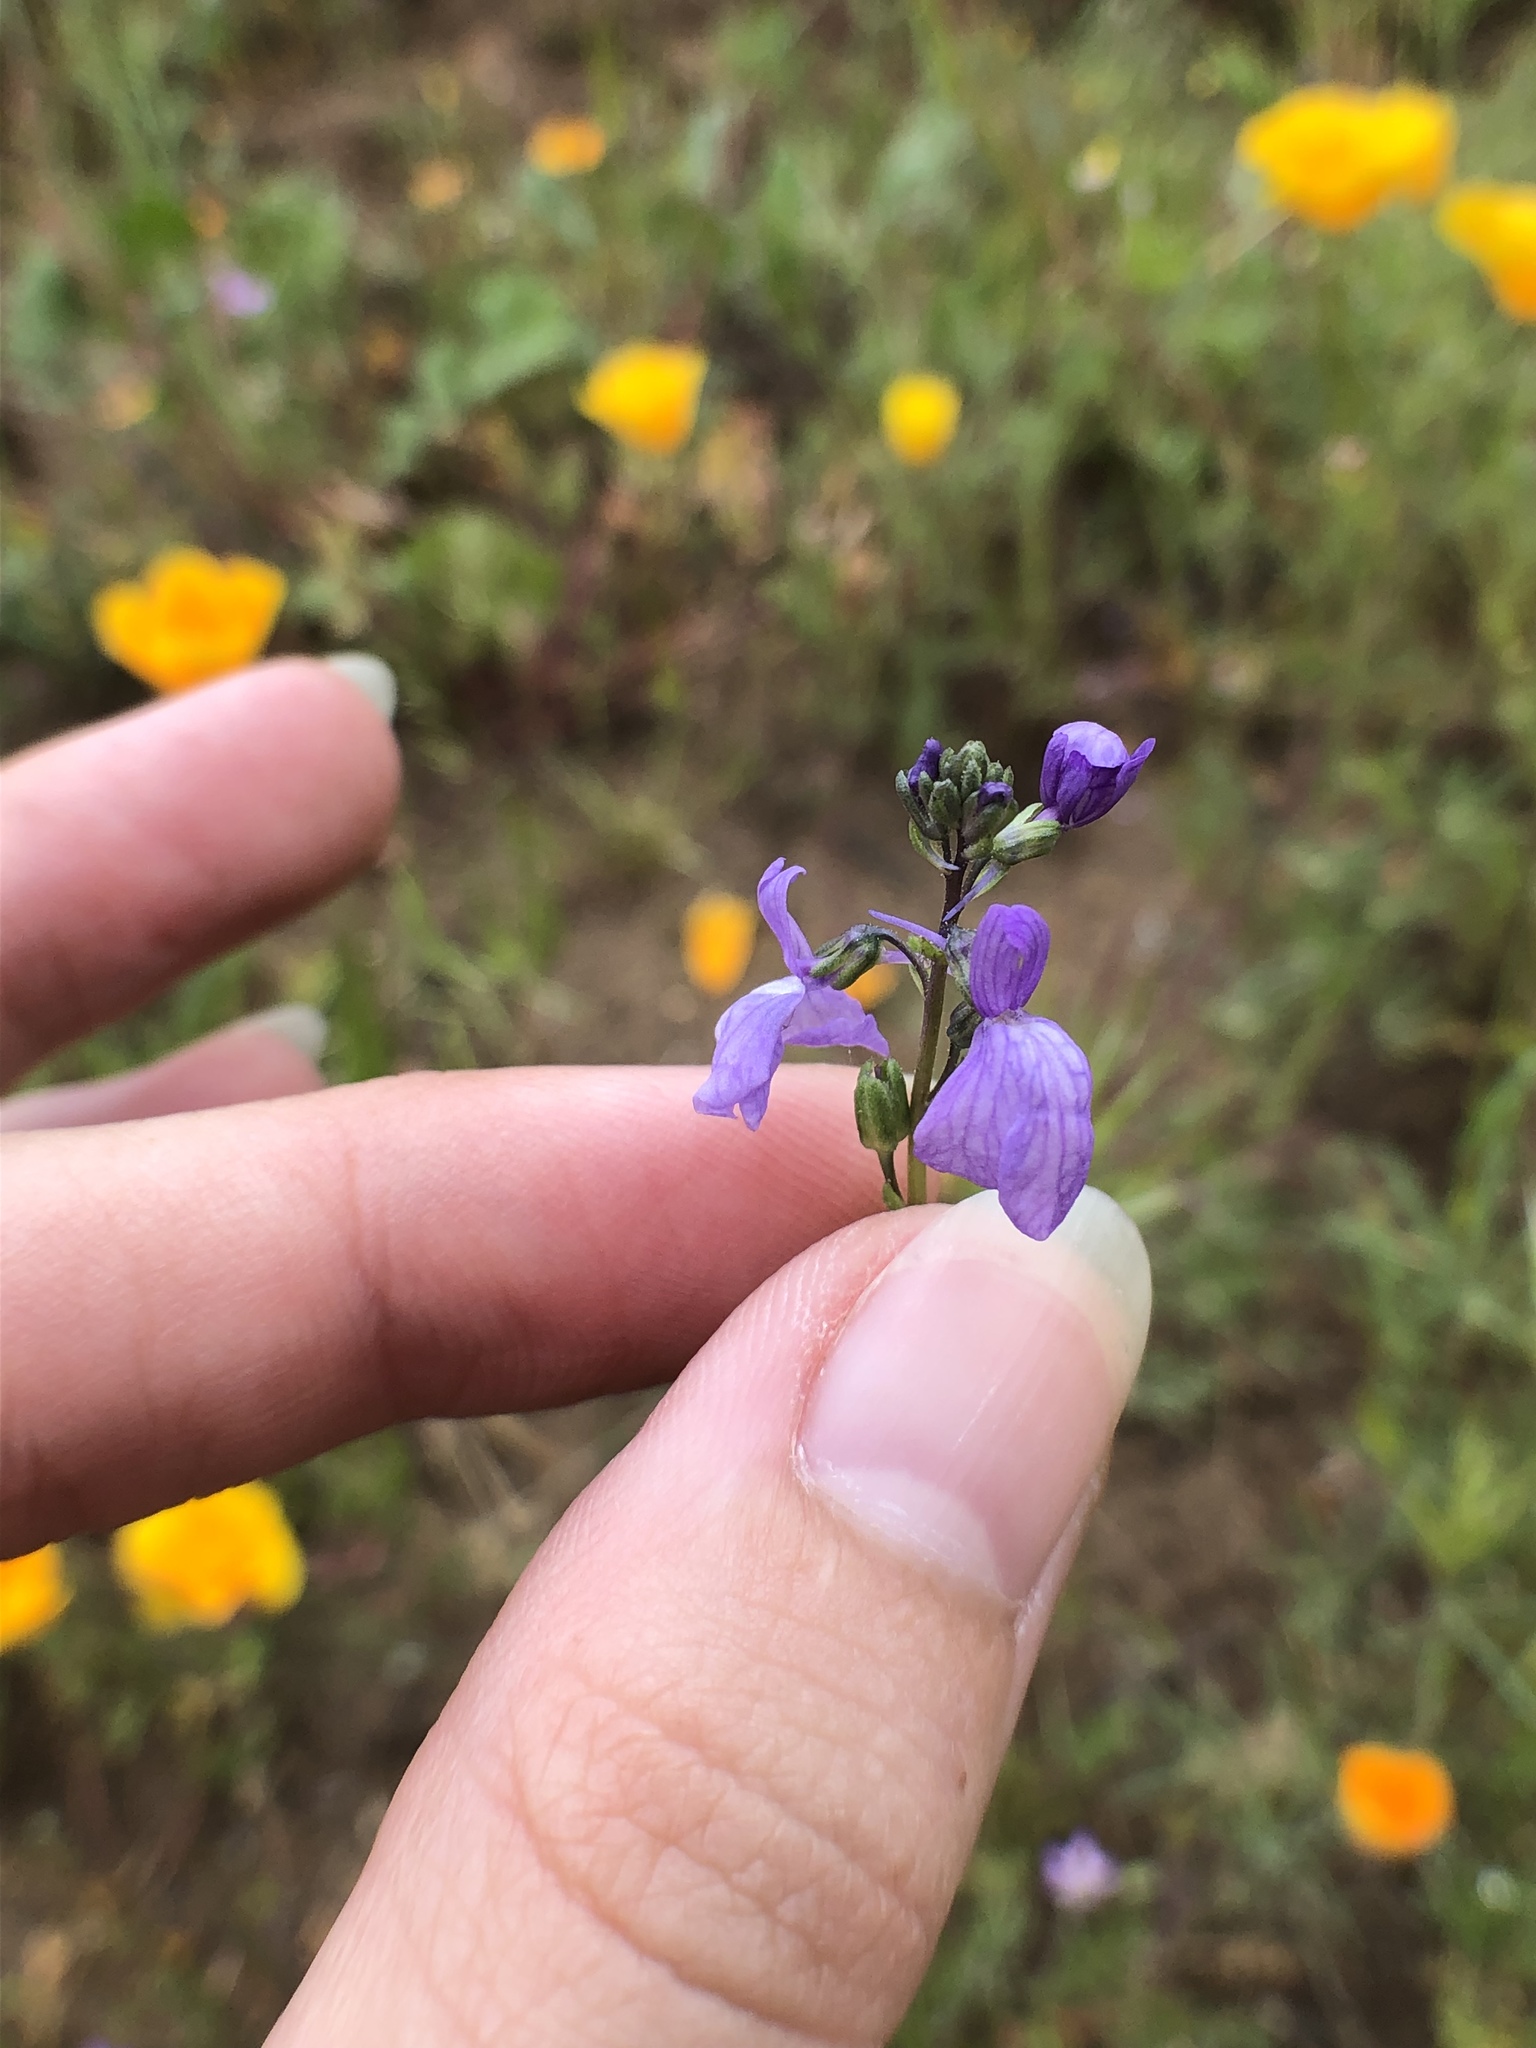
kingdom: Plantae
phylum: Tracheophyta
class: Magnoliopsida
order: Lamiales
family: Plantaginaceae
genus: Nuttallanthus
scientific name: Nuttallanthus texanus
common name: Texas toadflax
